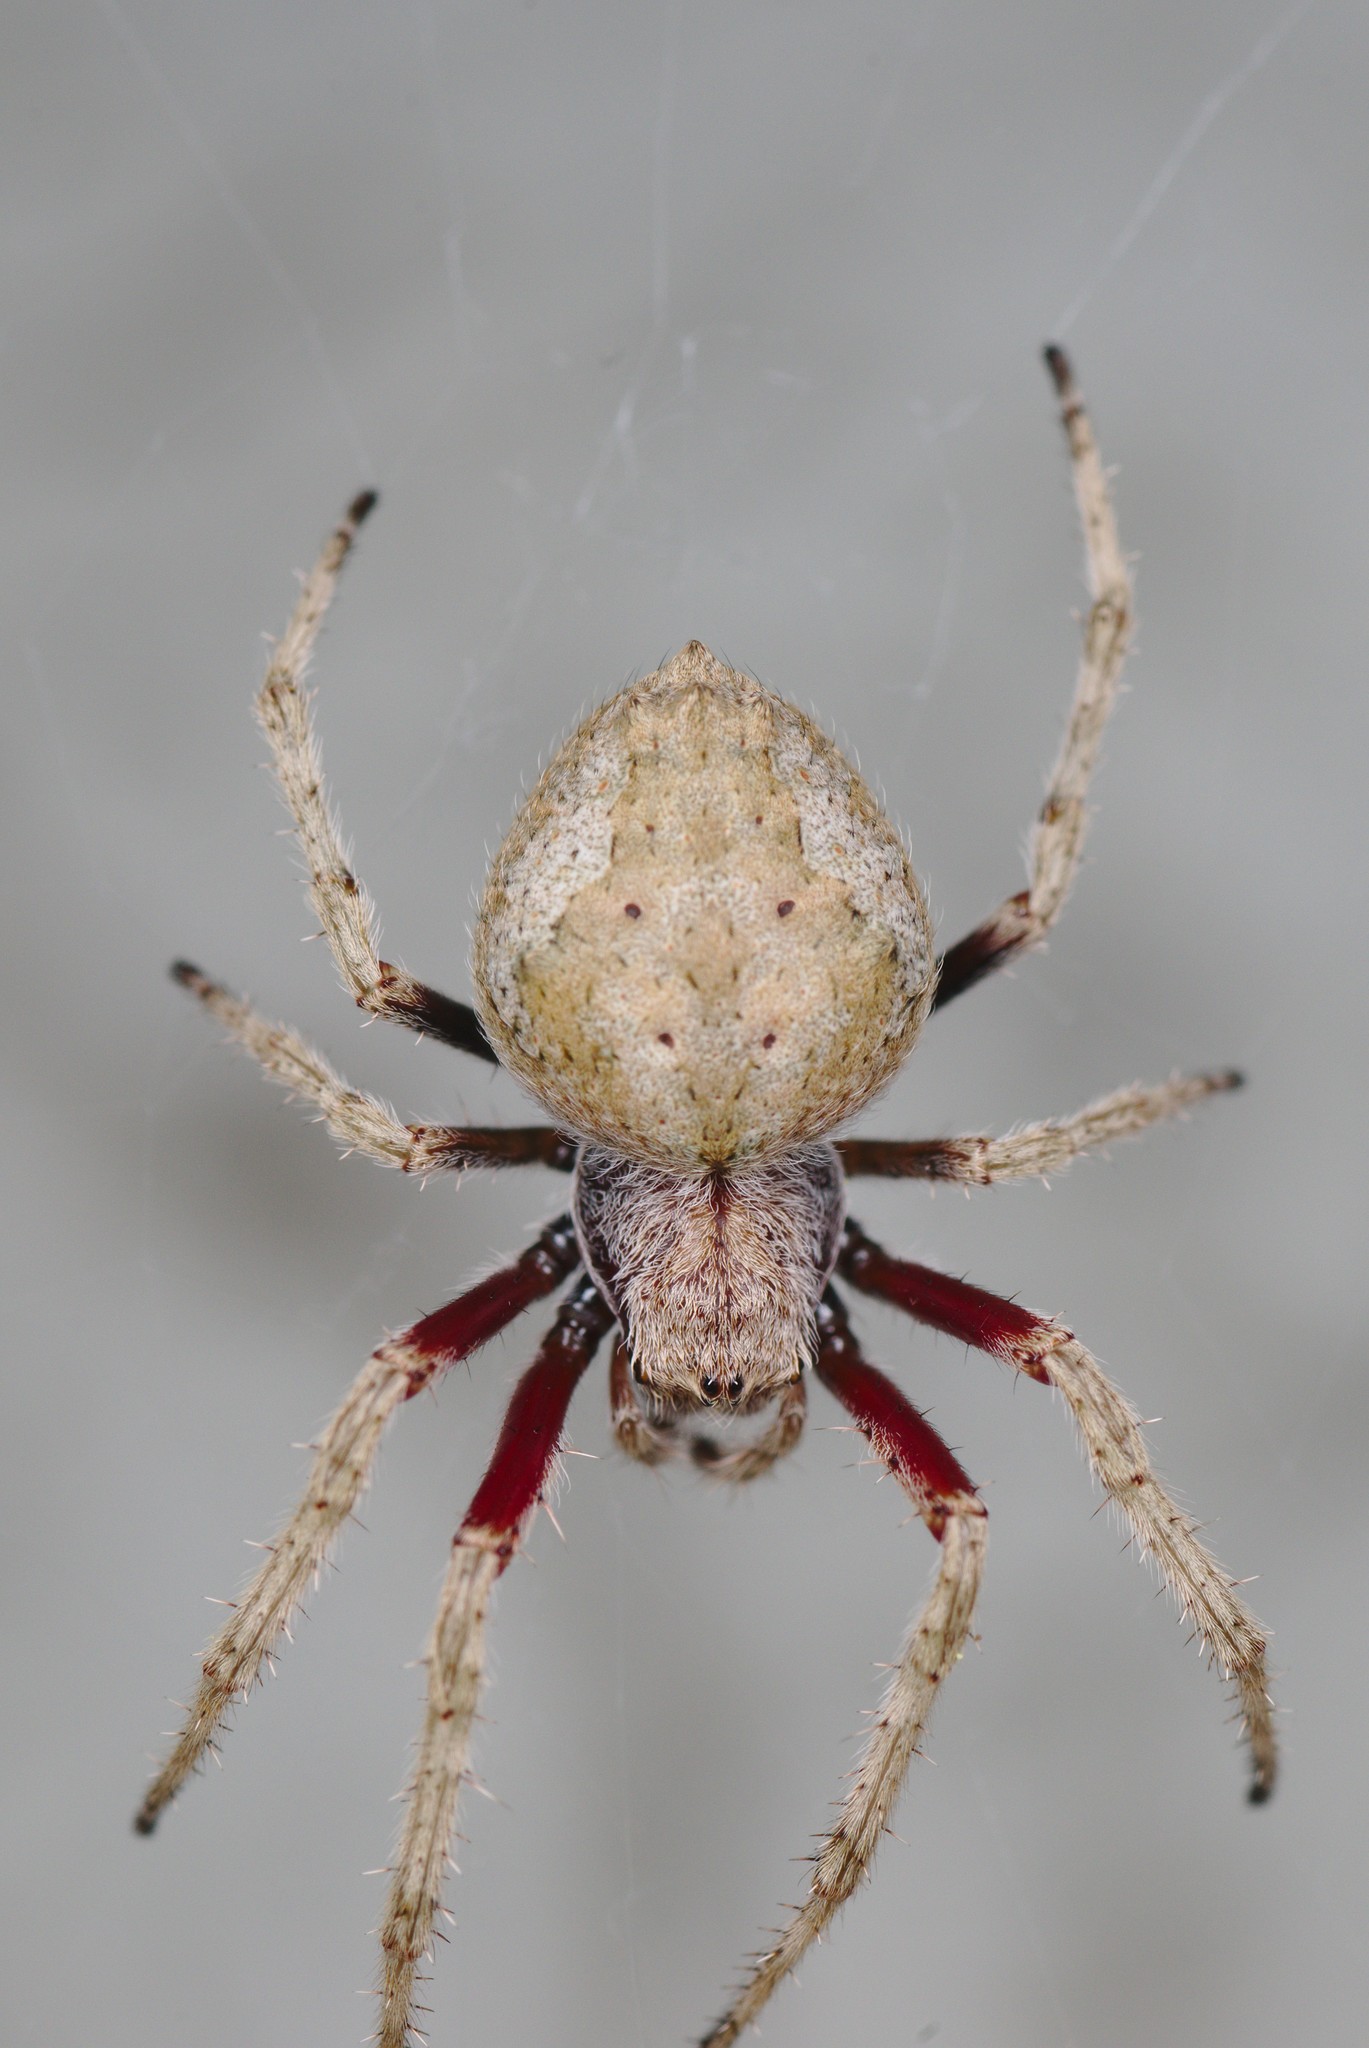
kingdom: Animalia
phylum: Arthropoda
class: Arachnida
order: Araneae
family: Araneidae
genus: Eriophora
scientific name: Eriophora pustulosa
